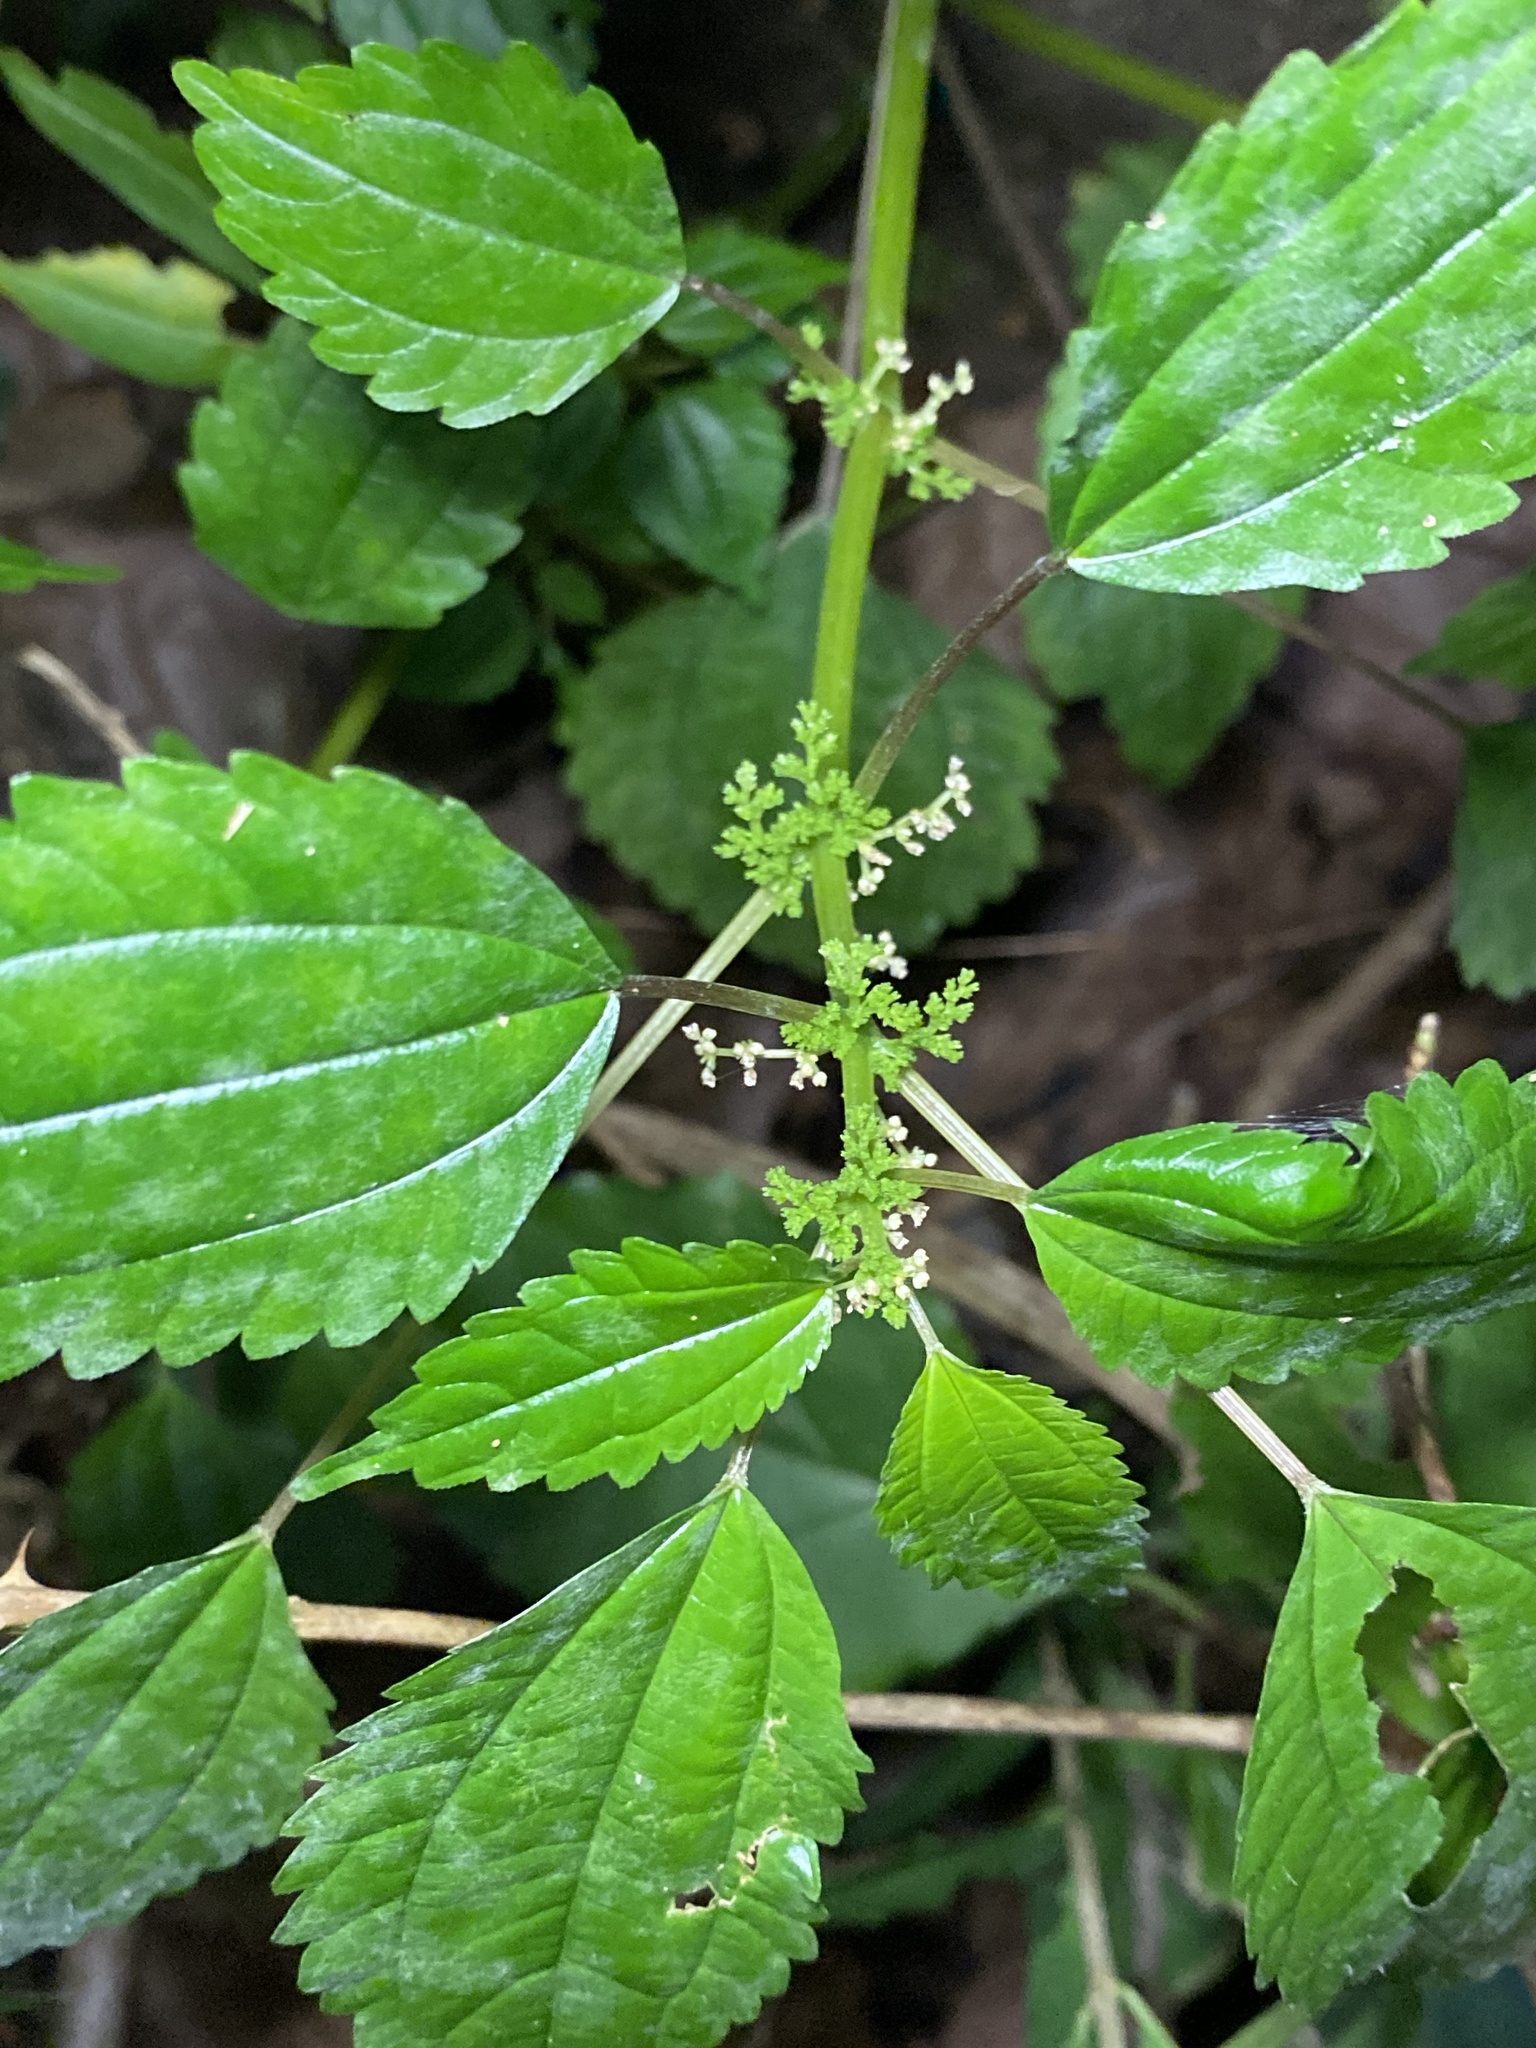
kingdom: Plantae
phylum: Tracheophyta
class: Magnoliopsida
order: Rosales
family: Urticaceae
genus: Pilea
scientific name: Pilea pumila
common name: Clearweed
